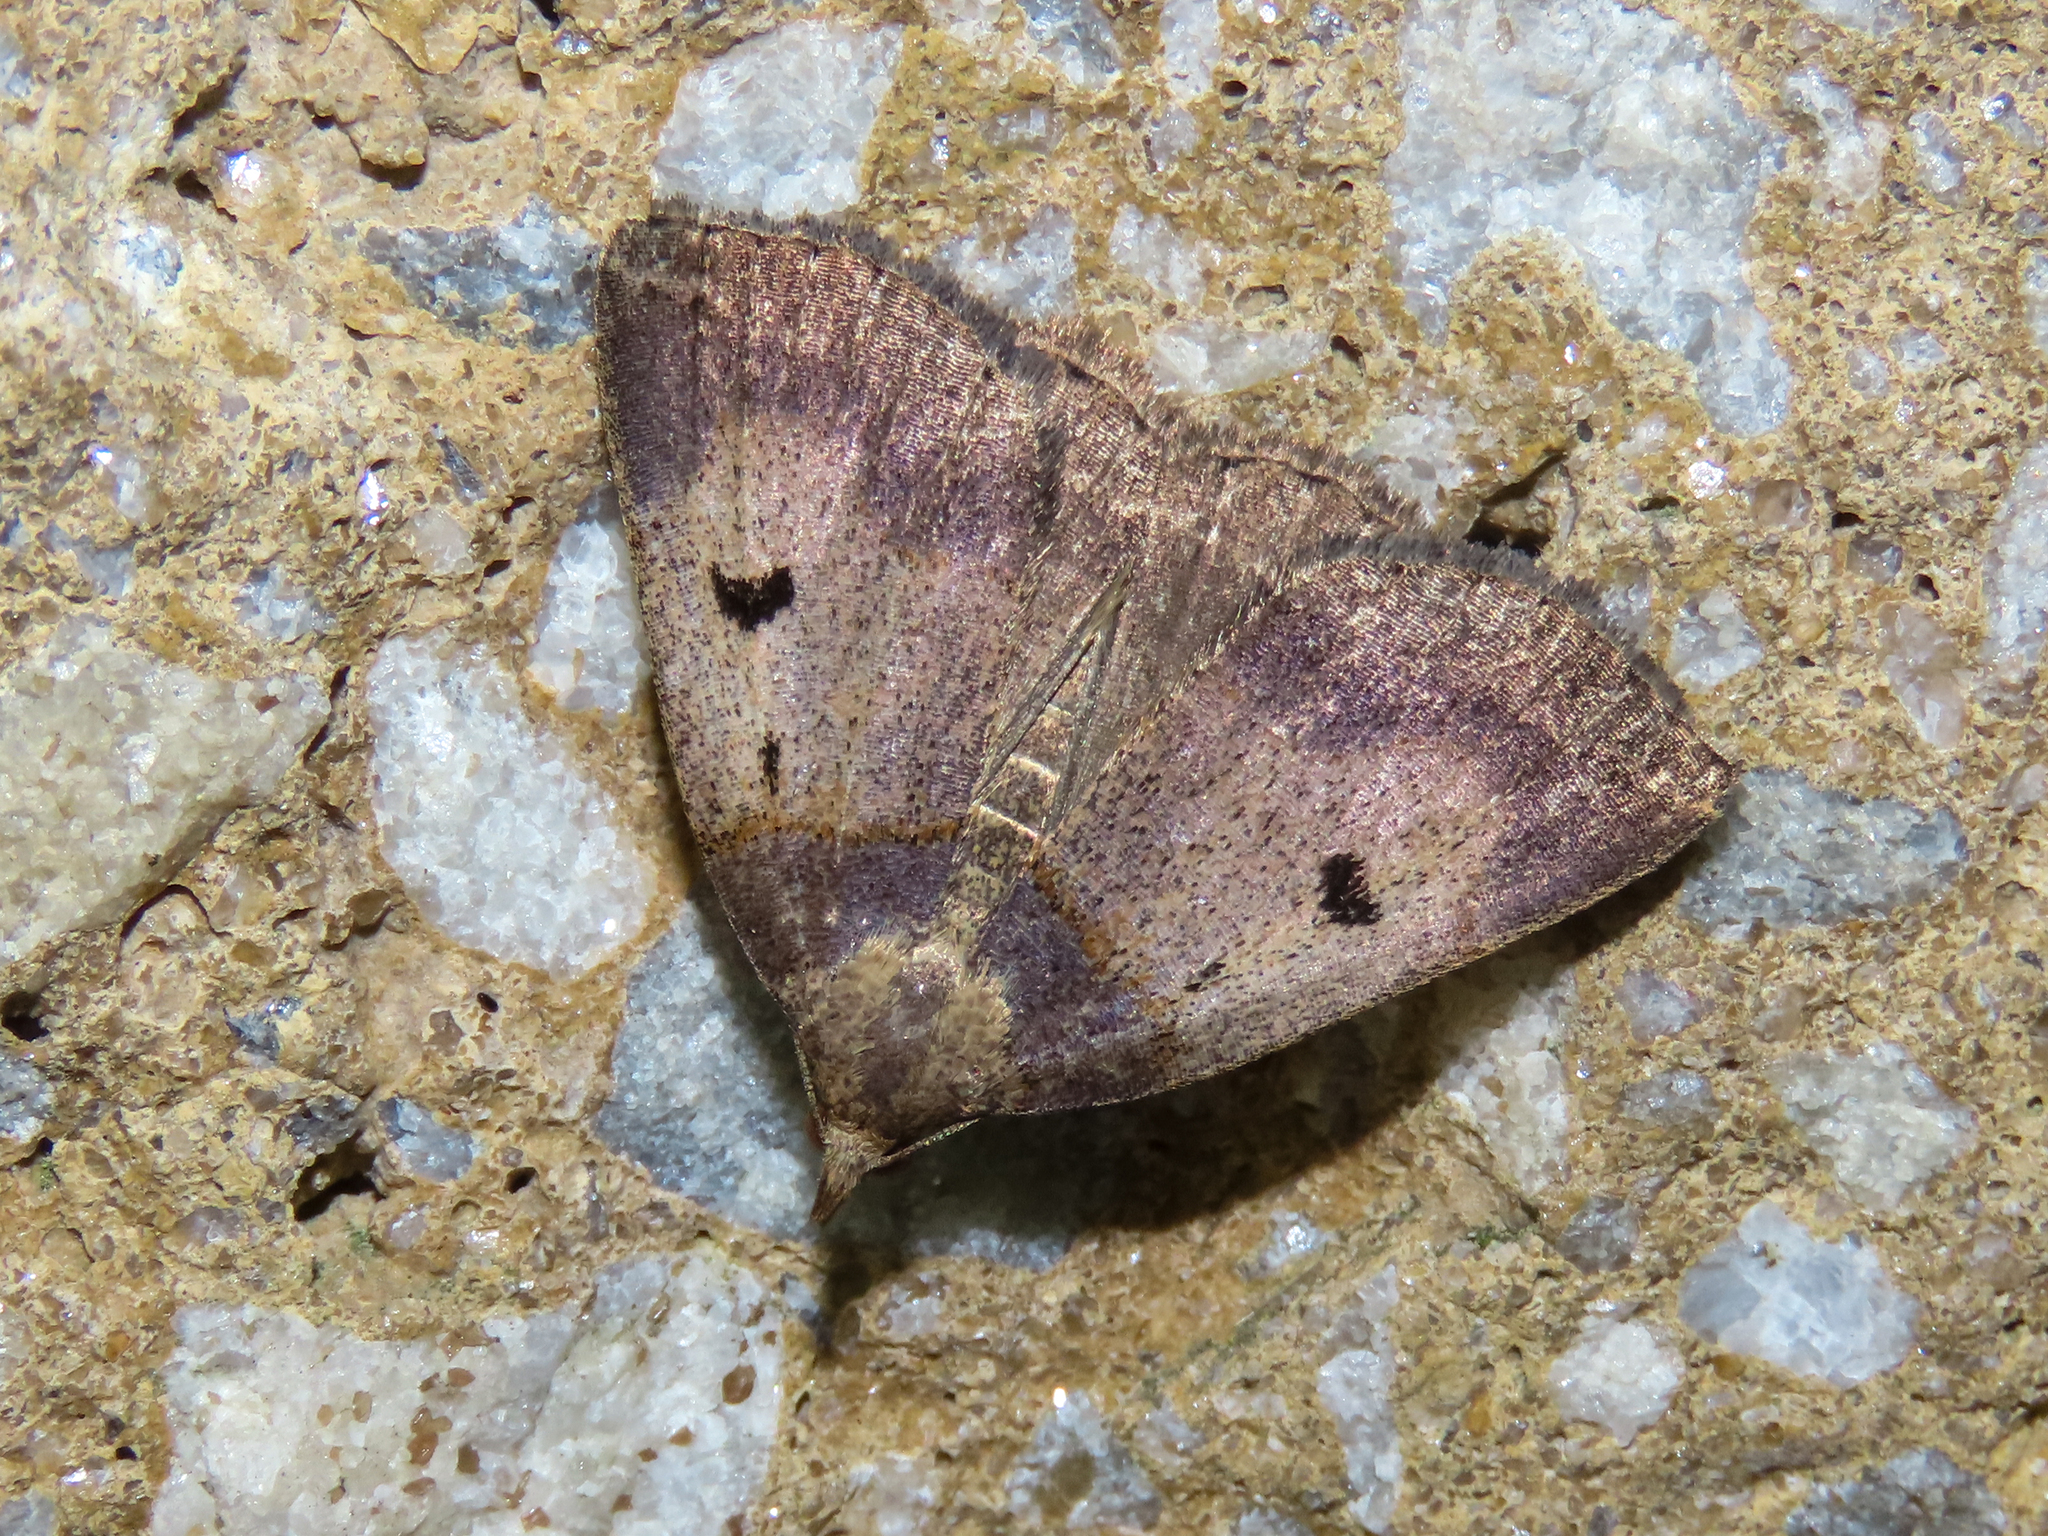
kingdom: Animalia
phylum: Arthropoda
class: Insecta
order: Lepidoptera
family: Erebidae
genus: Zanclognatha
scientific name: Zanclognatha laevigata
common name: Variable fan-foot
